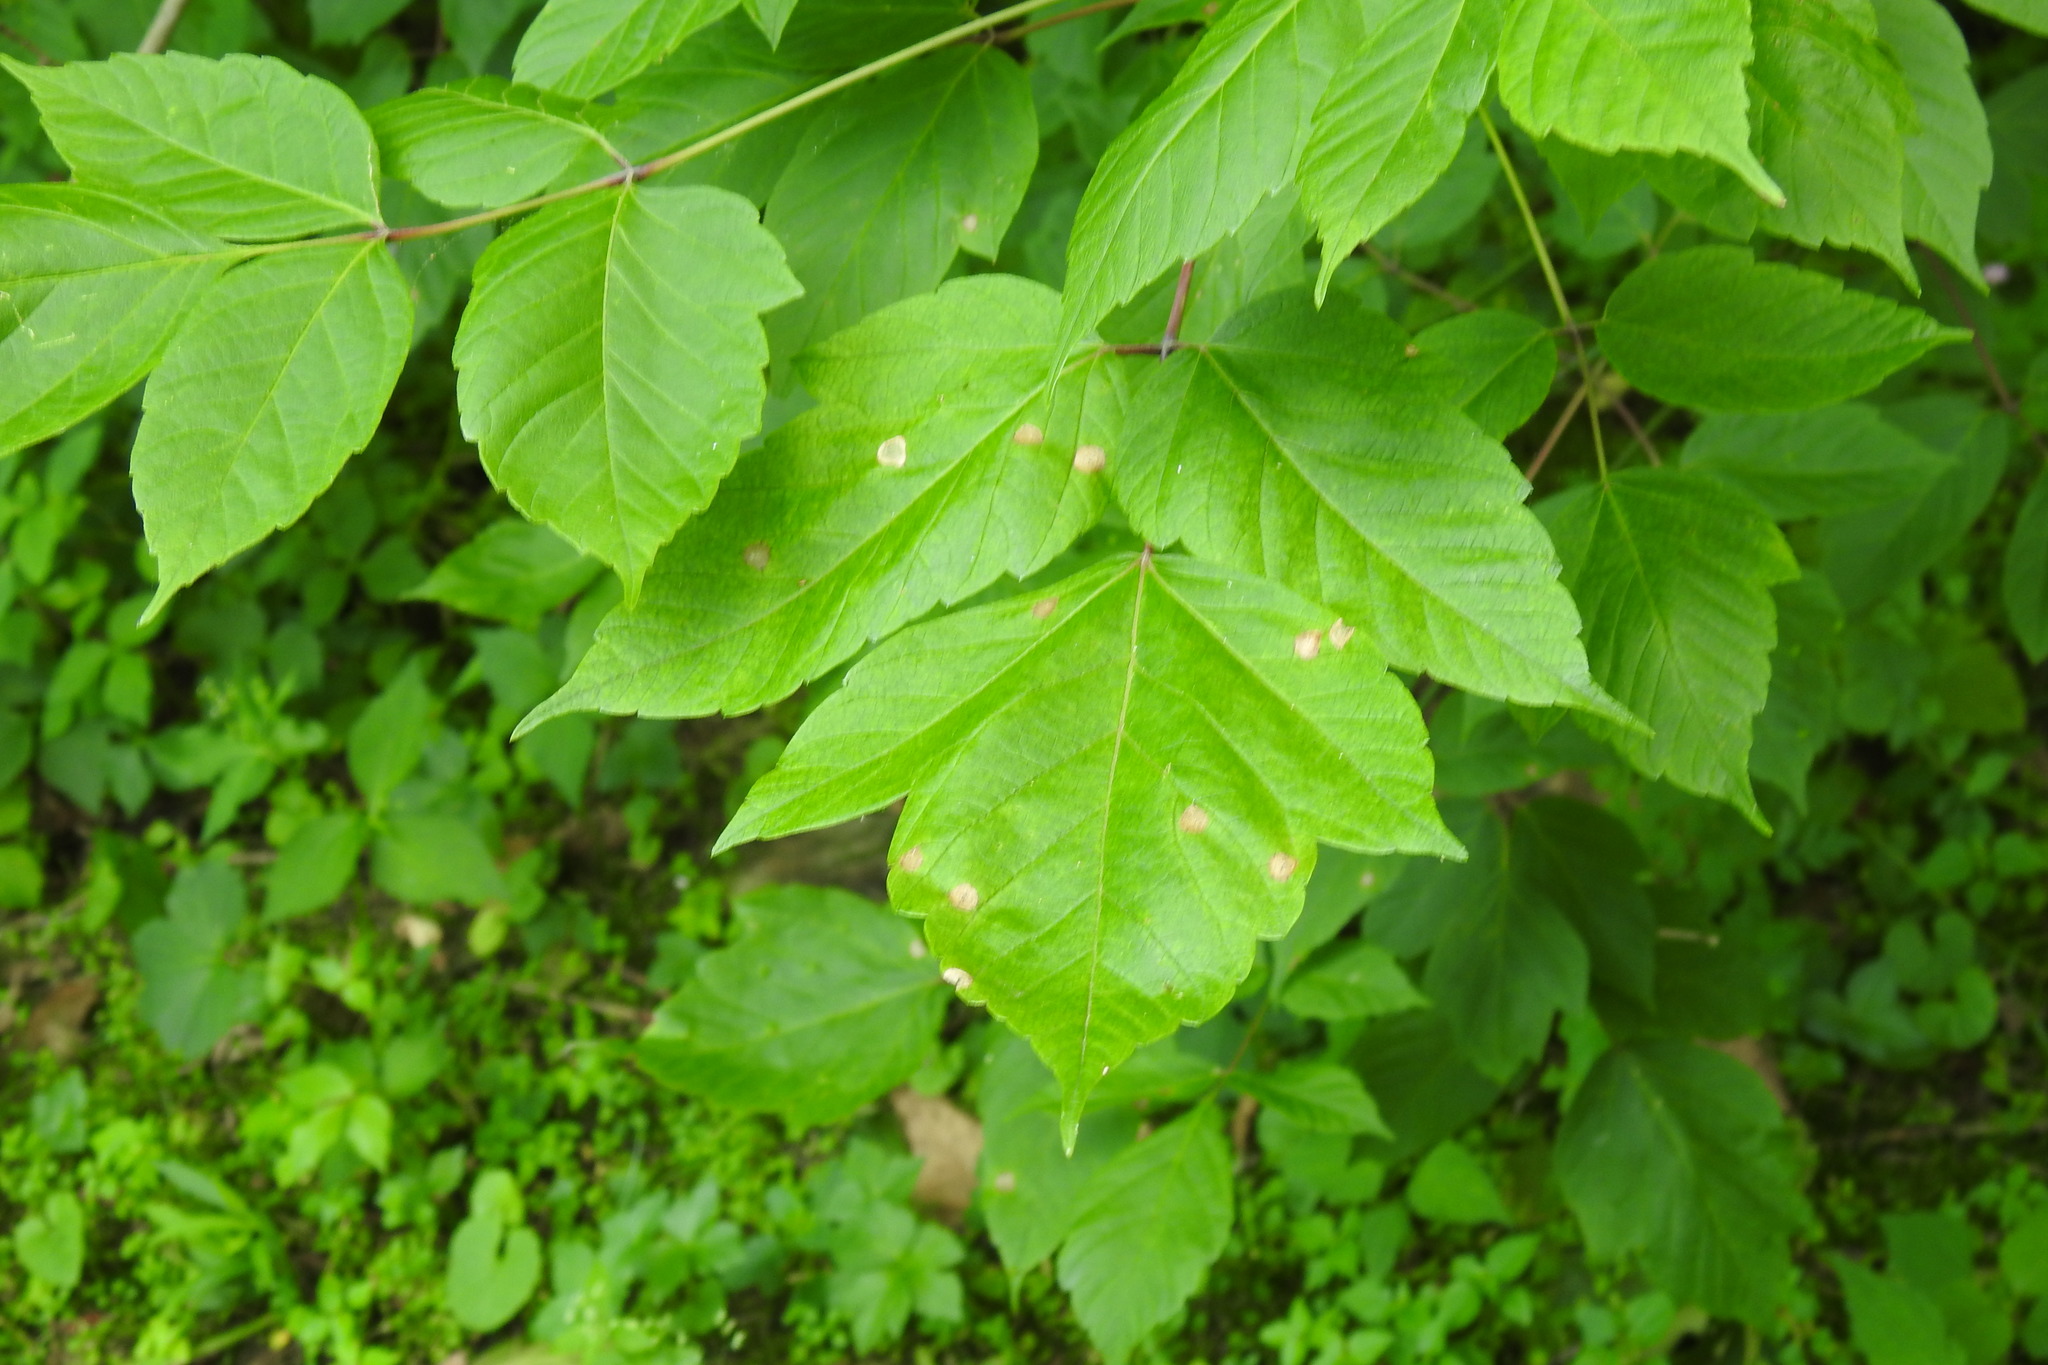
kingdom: Plantae
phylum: Tracheophyta
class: Magnoliopsida
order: Sapindales
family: Sapindaceae
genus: Acer
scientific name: Acer negundo
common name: Ashleaf maple
